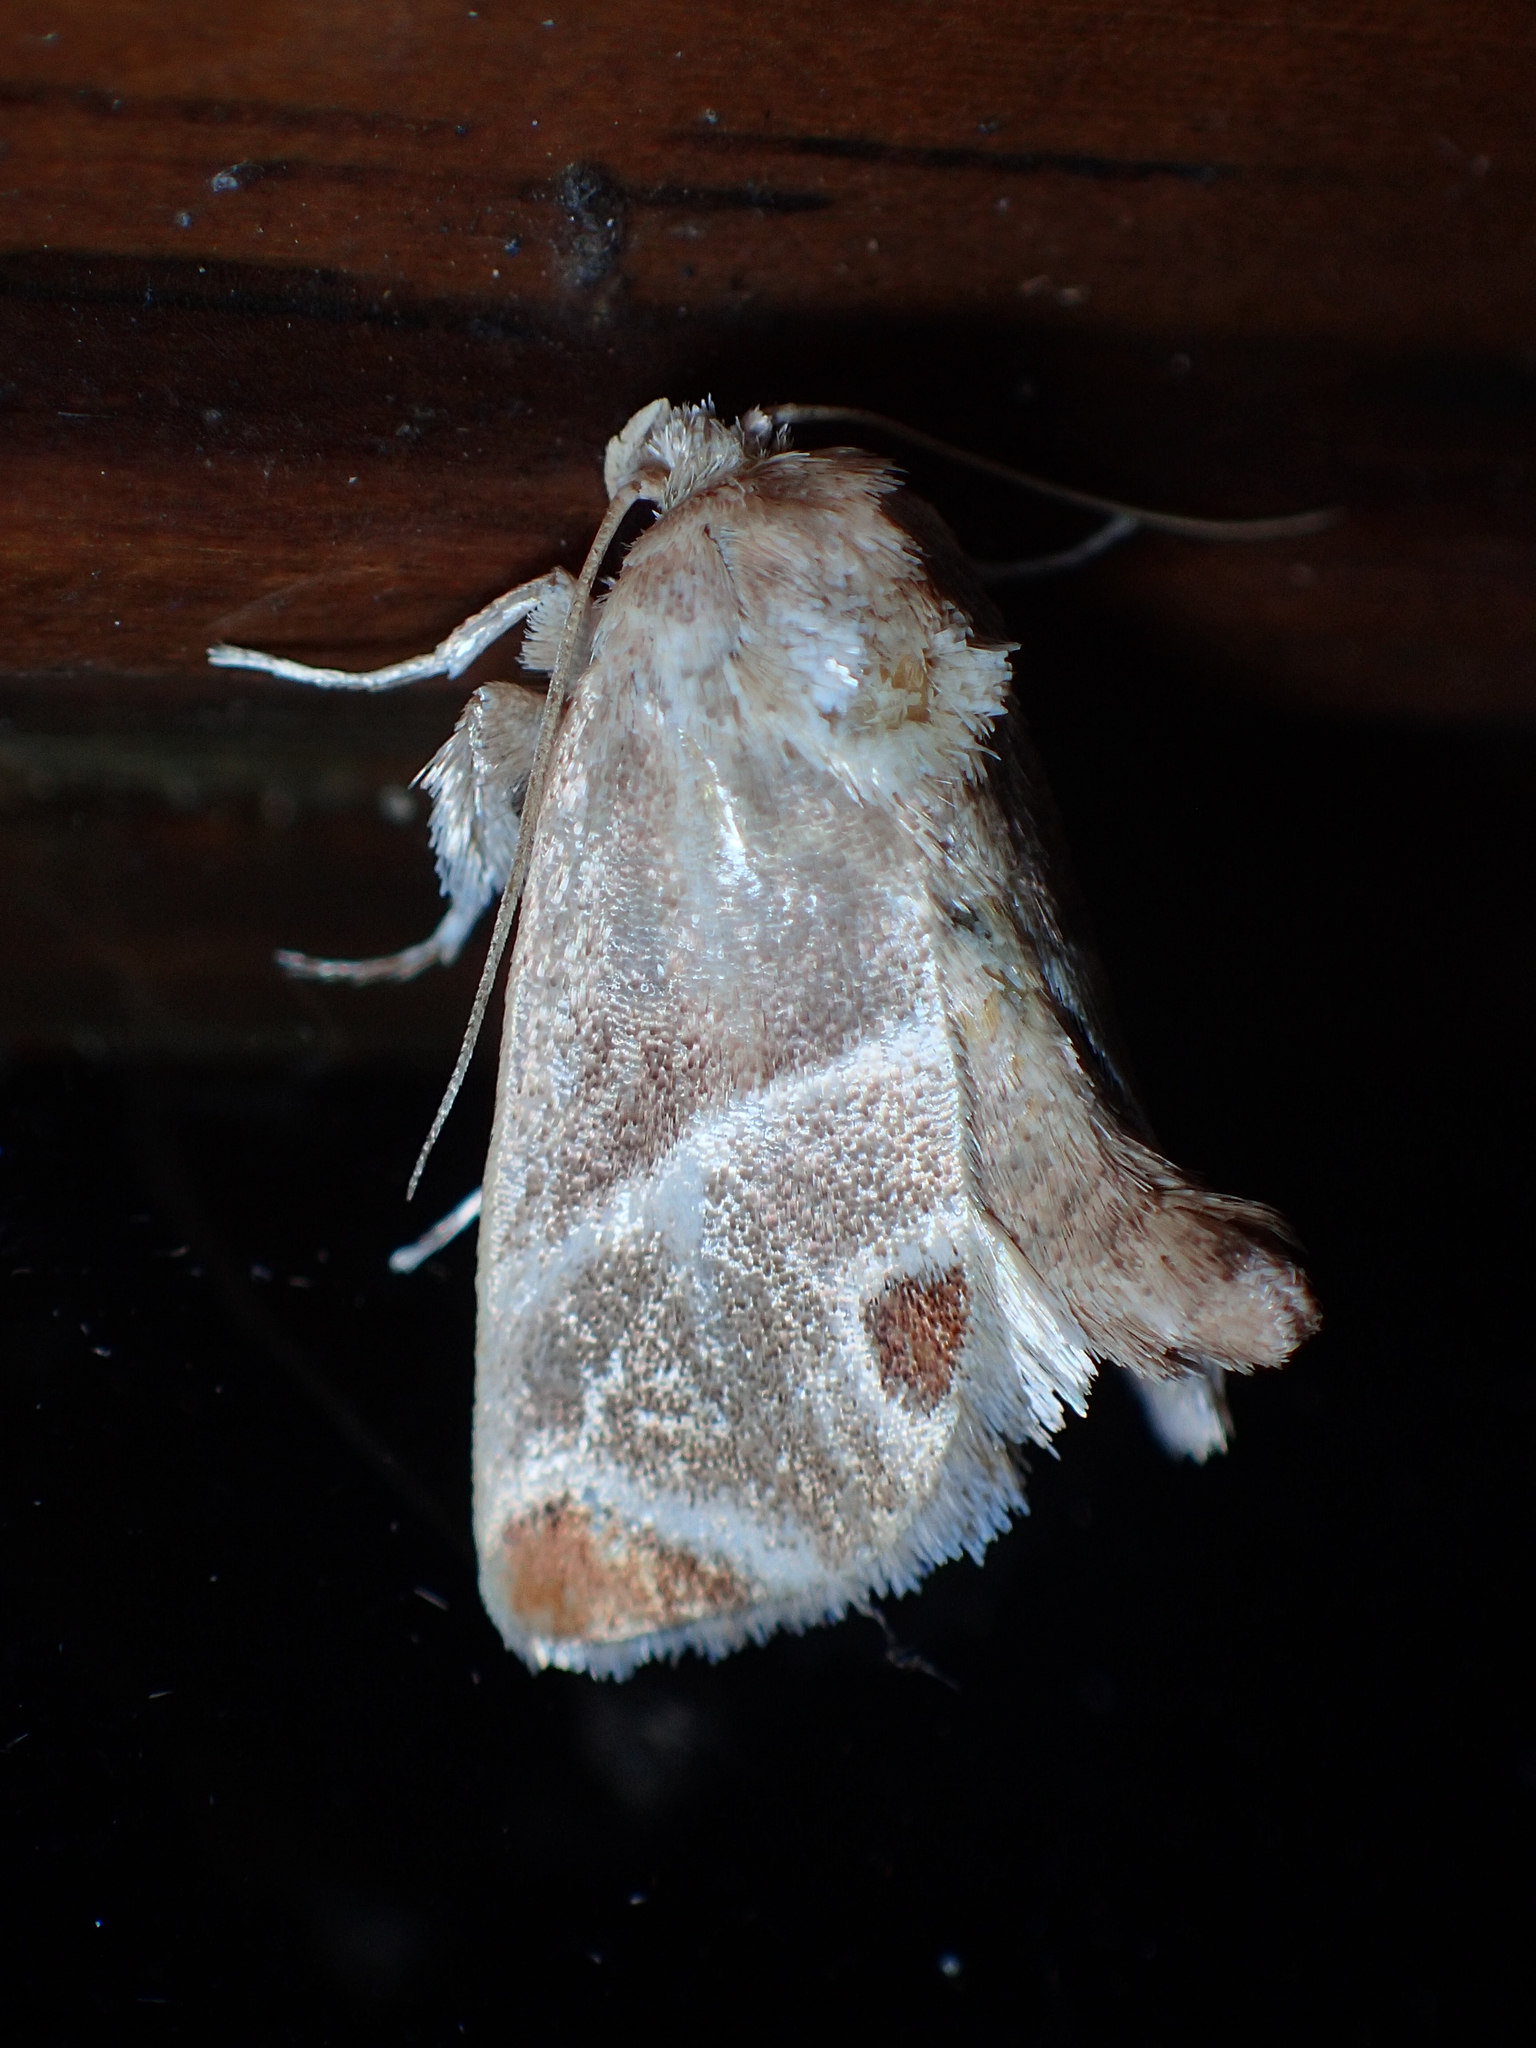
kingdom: Animalia
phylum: Arthropoda
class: Insecta
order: Lepidoptera
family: Limacodidae
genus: Apoda
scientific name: Apoda biguttata
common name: Shagreened slug moth
